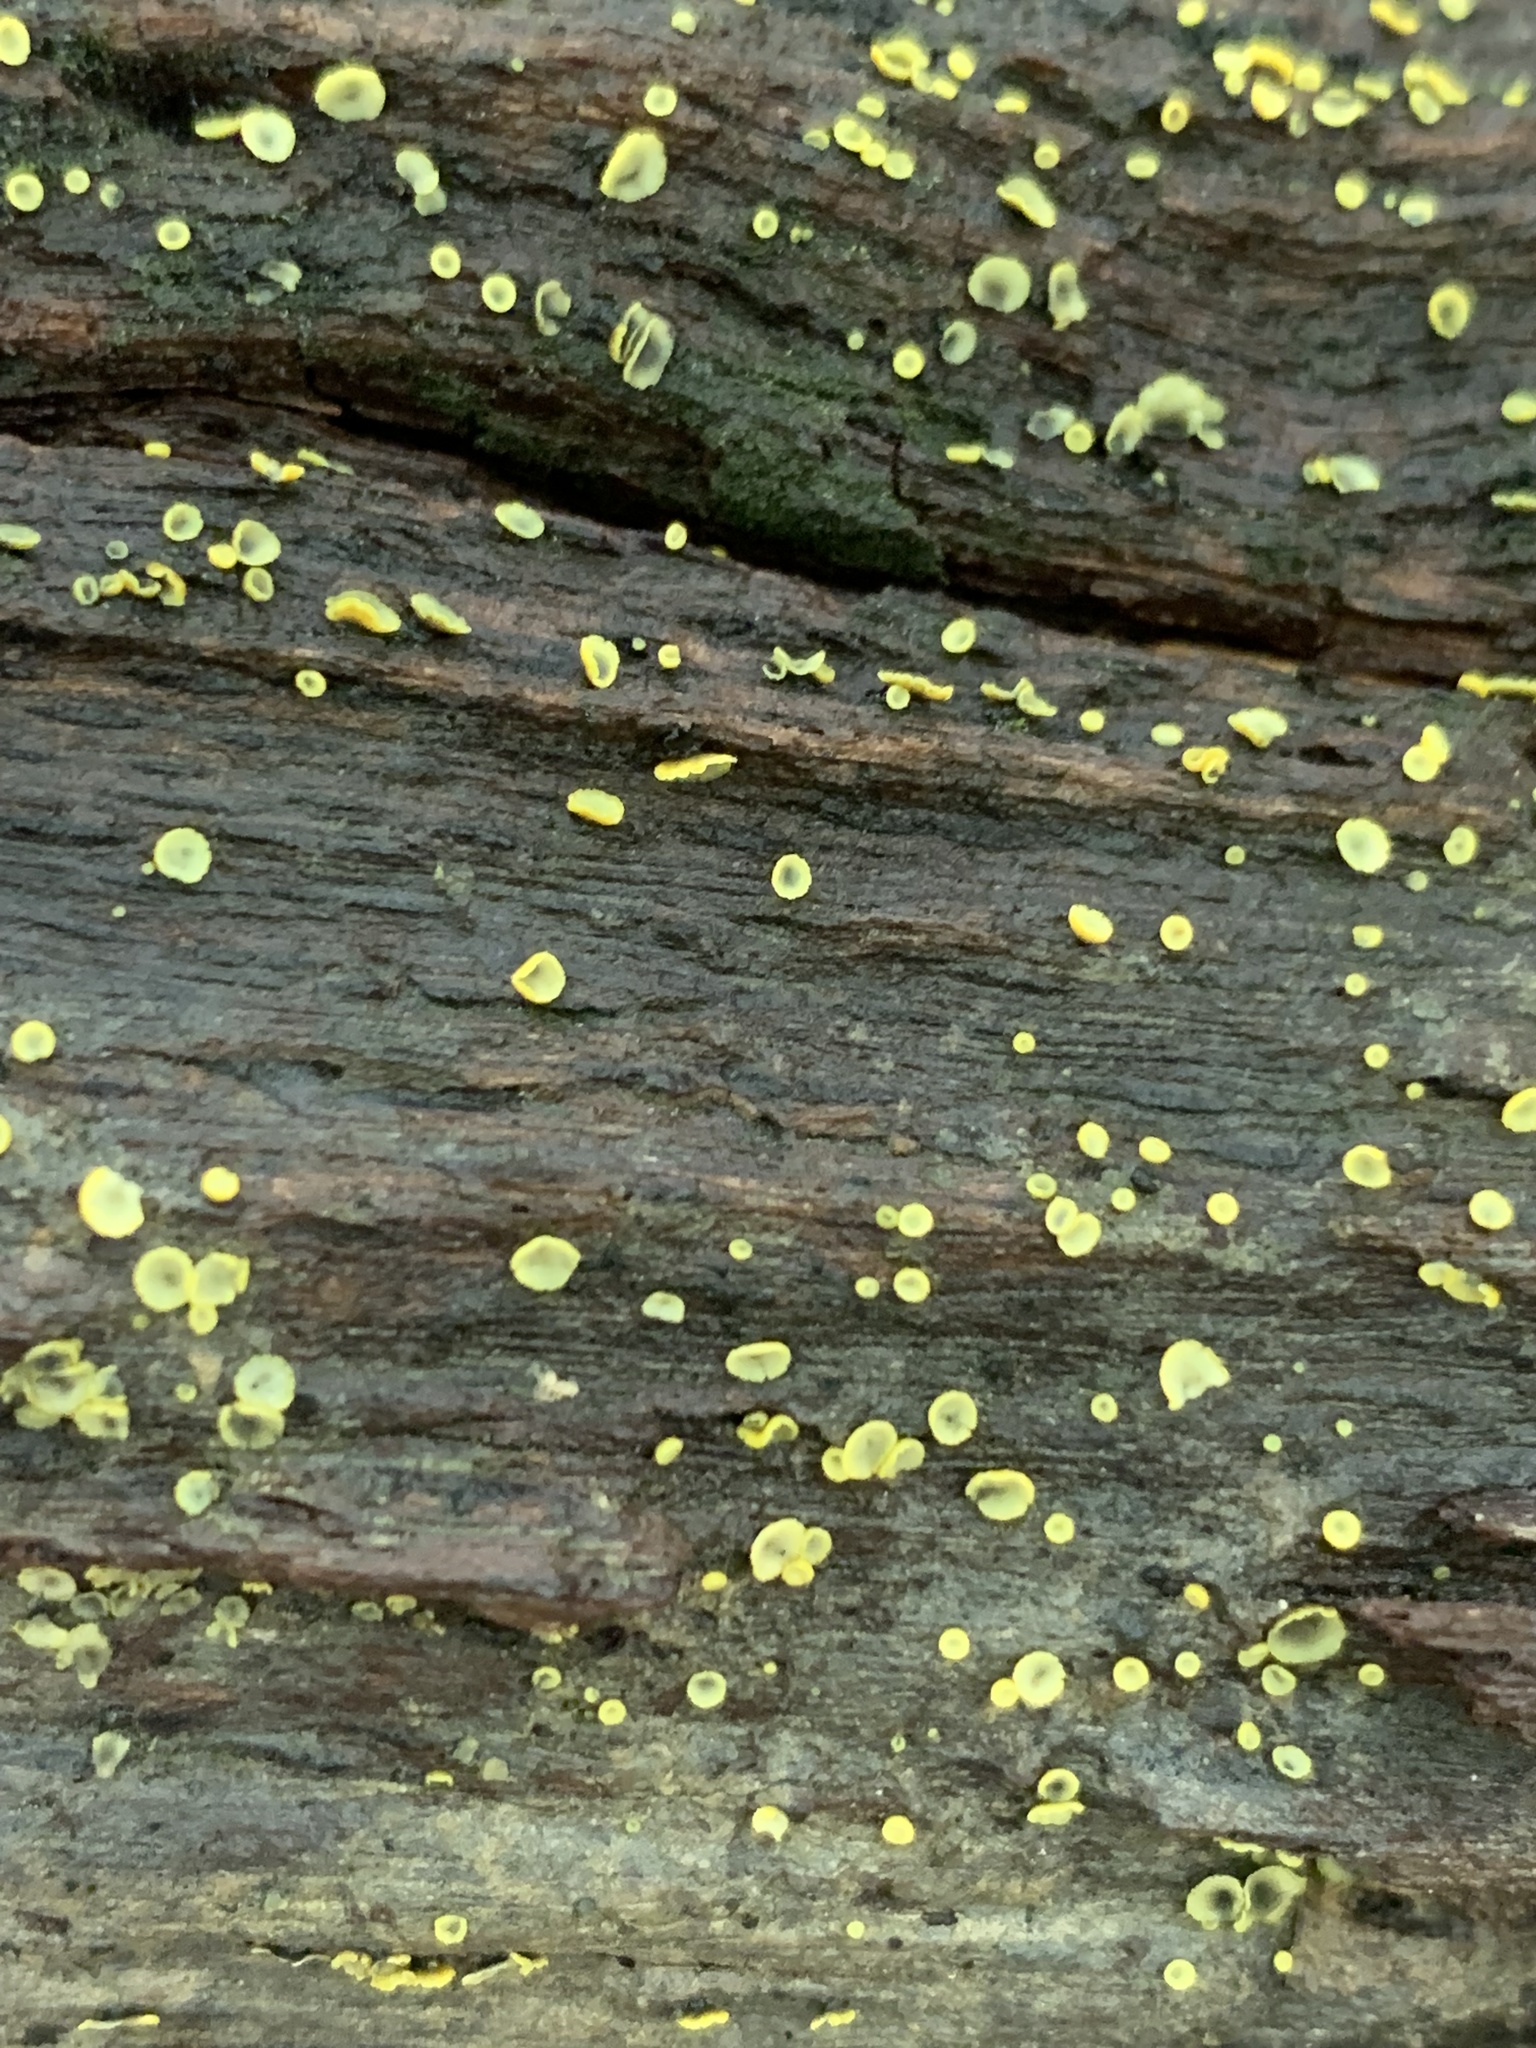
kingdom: Fungi
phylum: Ascomycota
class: Leotiomycetes
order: Helotiales
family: Chlorospleniaceae
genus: Chlorosplenium
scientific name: Chlorosplenium chlora
